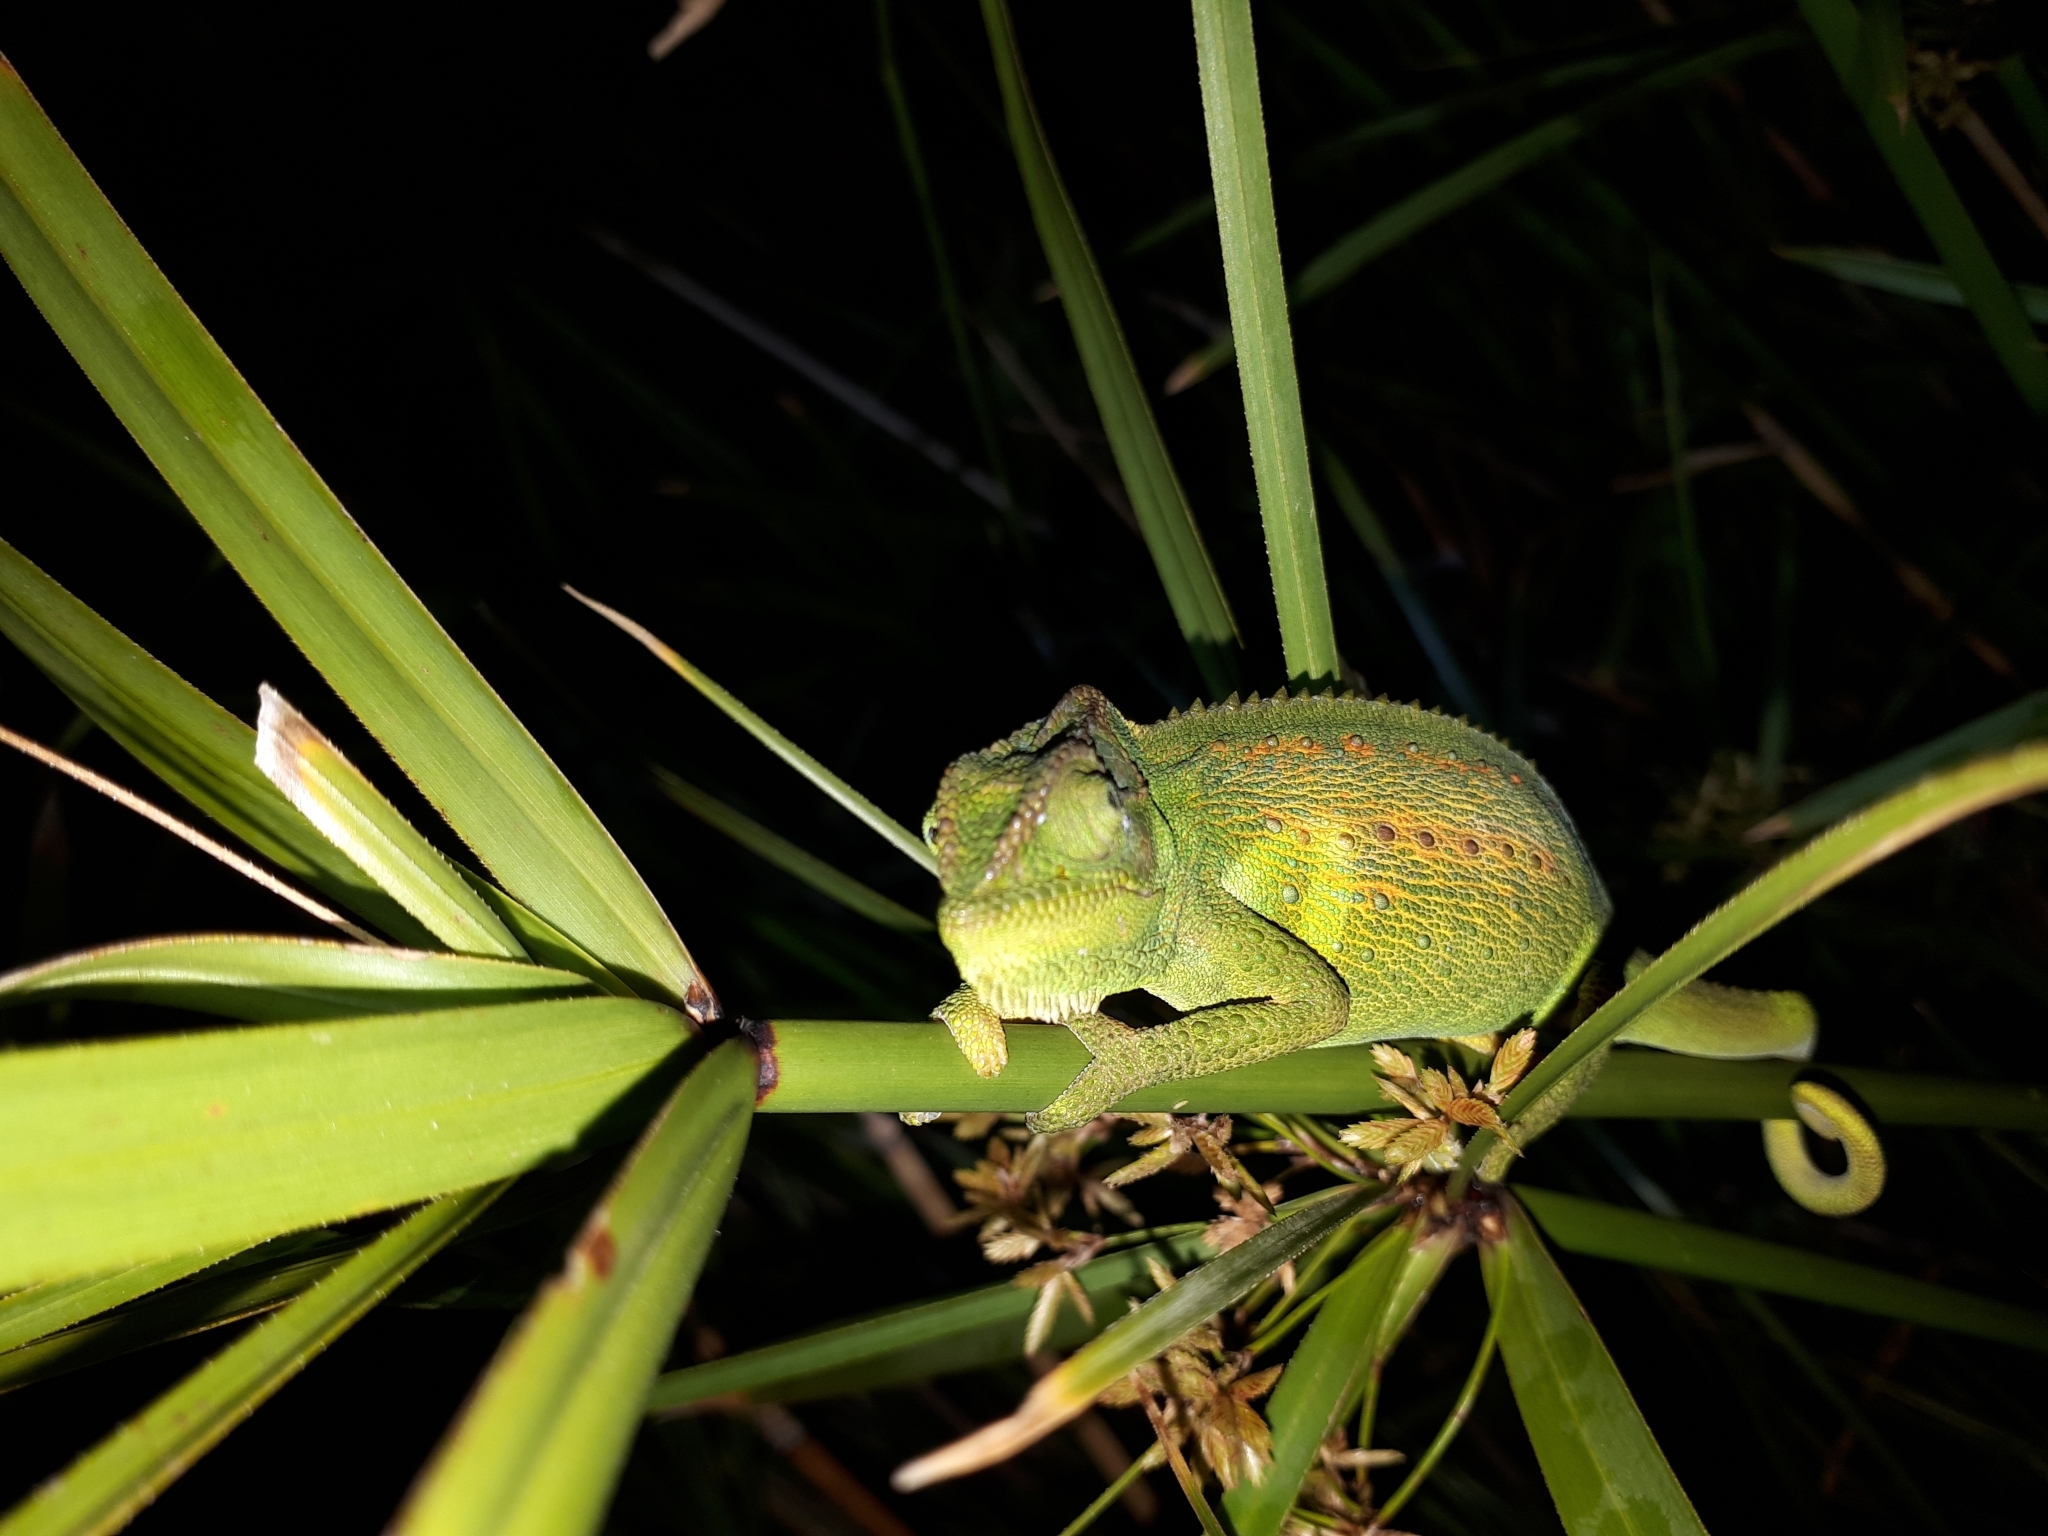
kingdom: Animalia
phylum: Chordata
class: Squamata
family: Chamaeleonidae
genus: Bradypodion
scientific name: Bradypodion pumilum
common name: Cape dwarf chameleon
